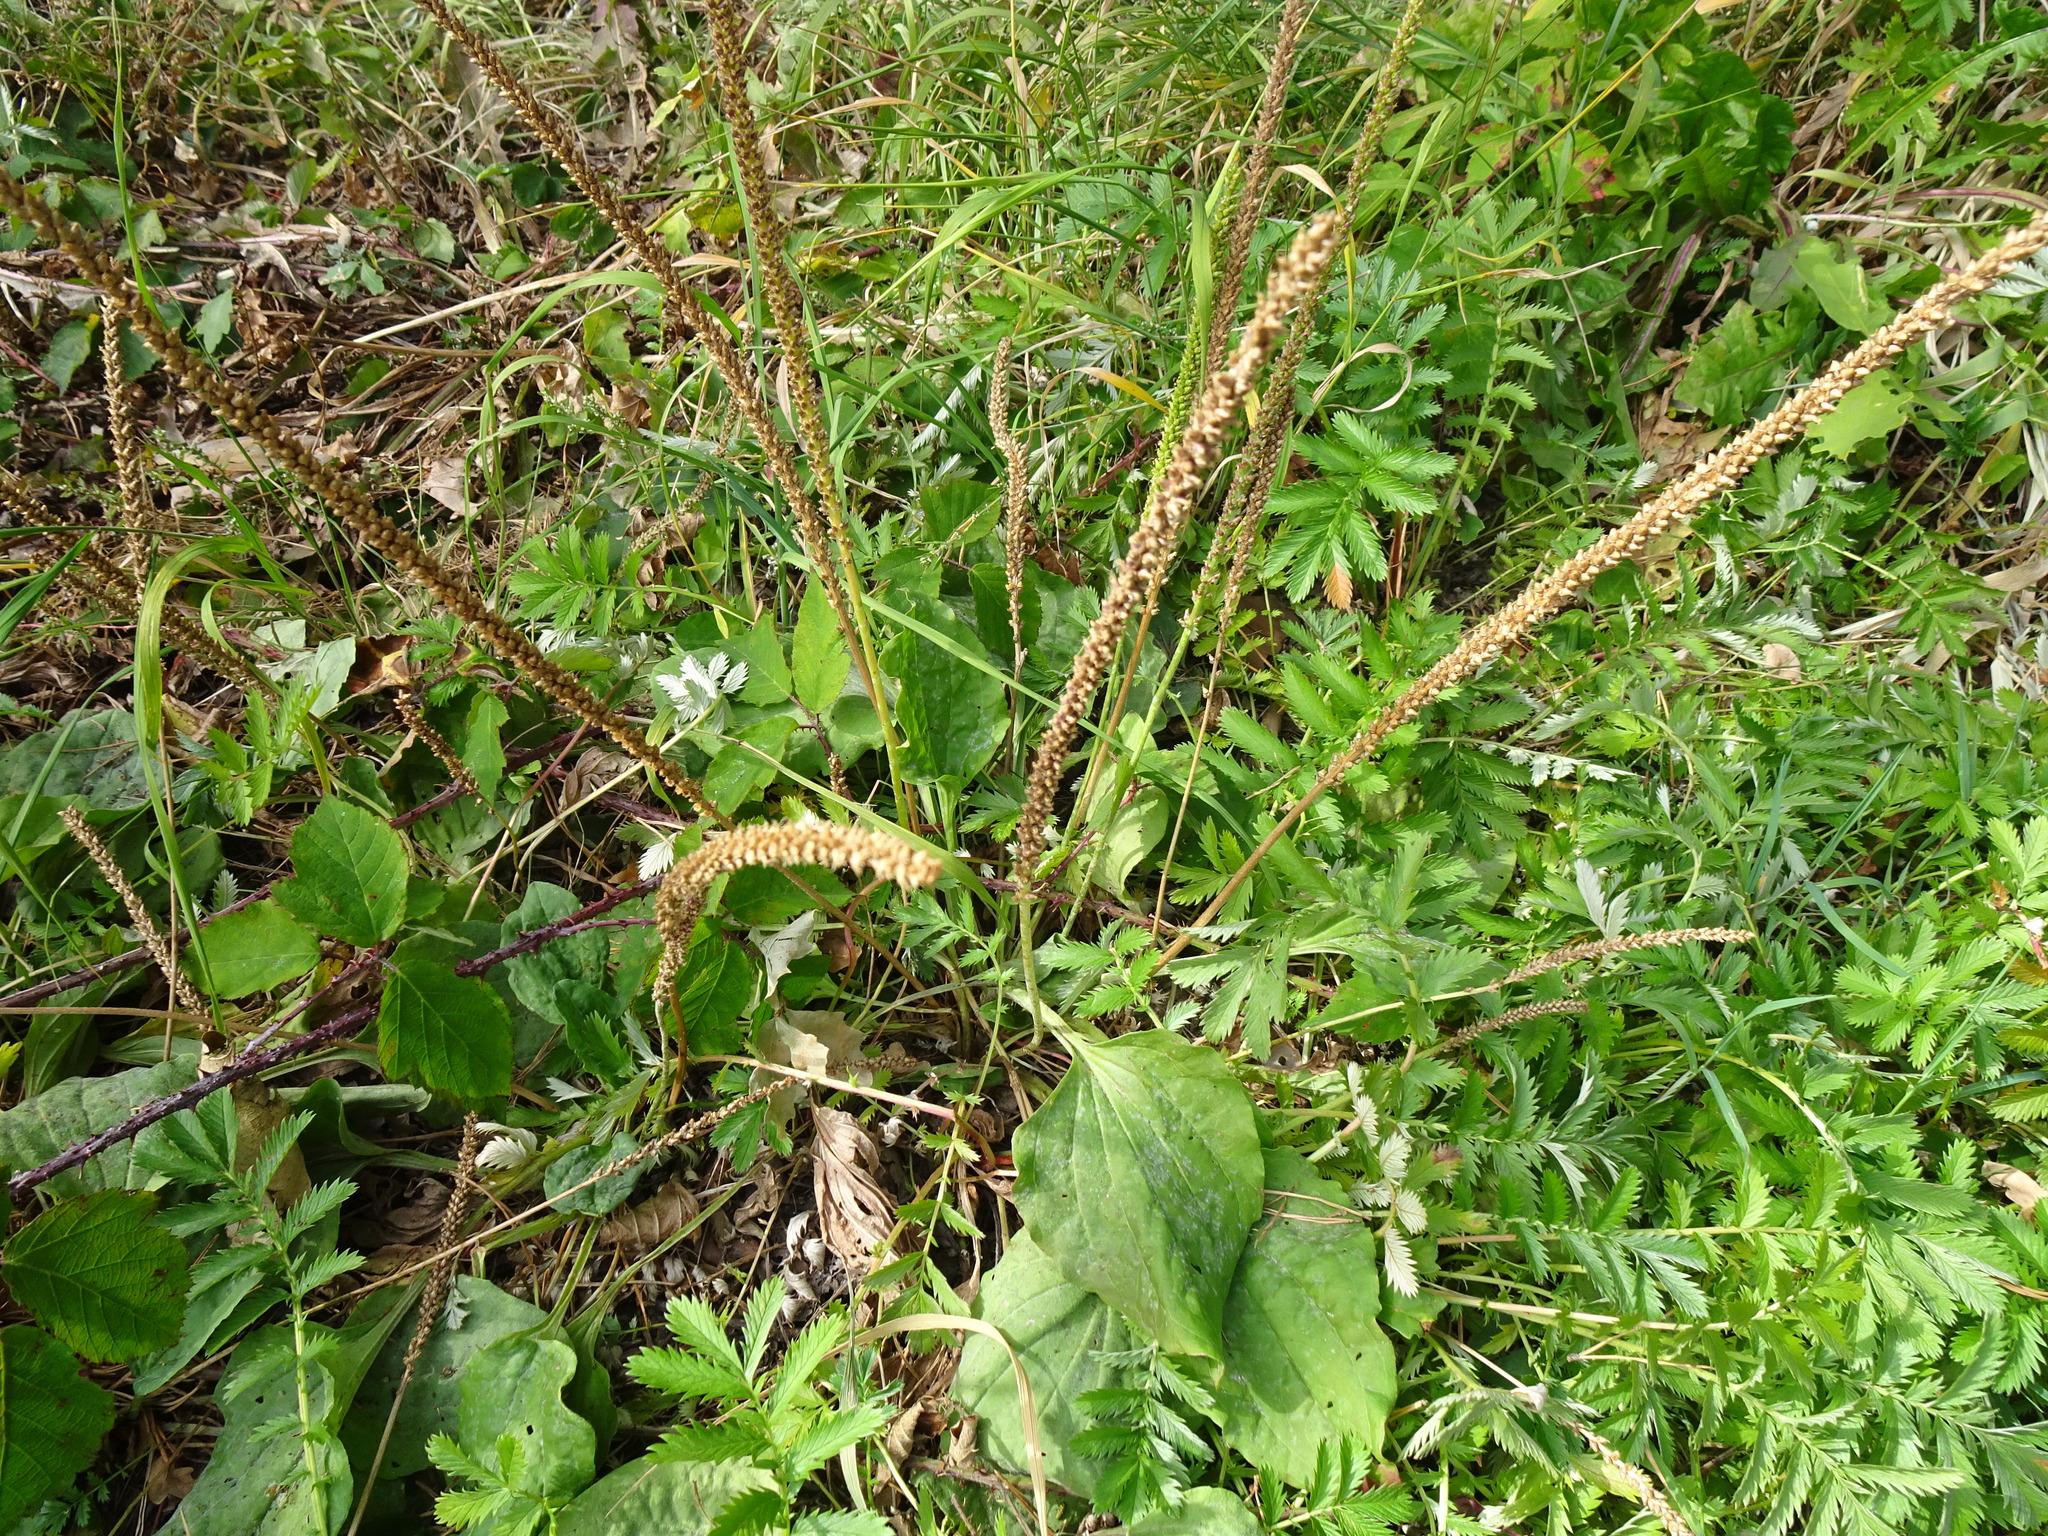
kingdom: Plantae
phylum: Tracheophyta
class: Magnoliopsida
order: Lamiales
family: Plantaginaceae
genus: Plantago
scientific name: Plantago major
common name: Common plantain
